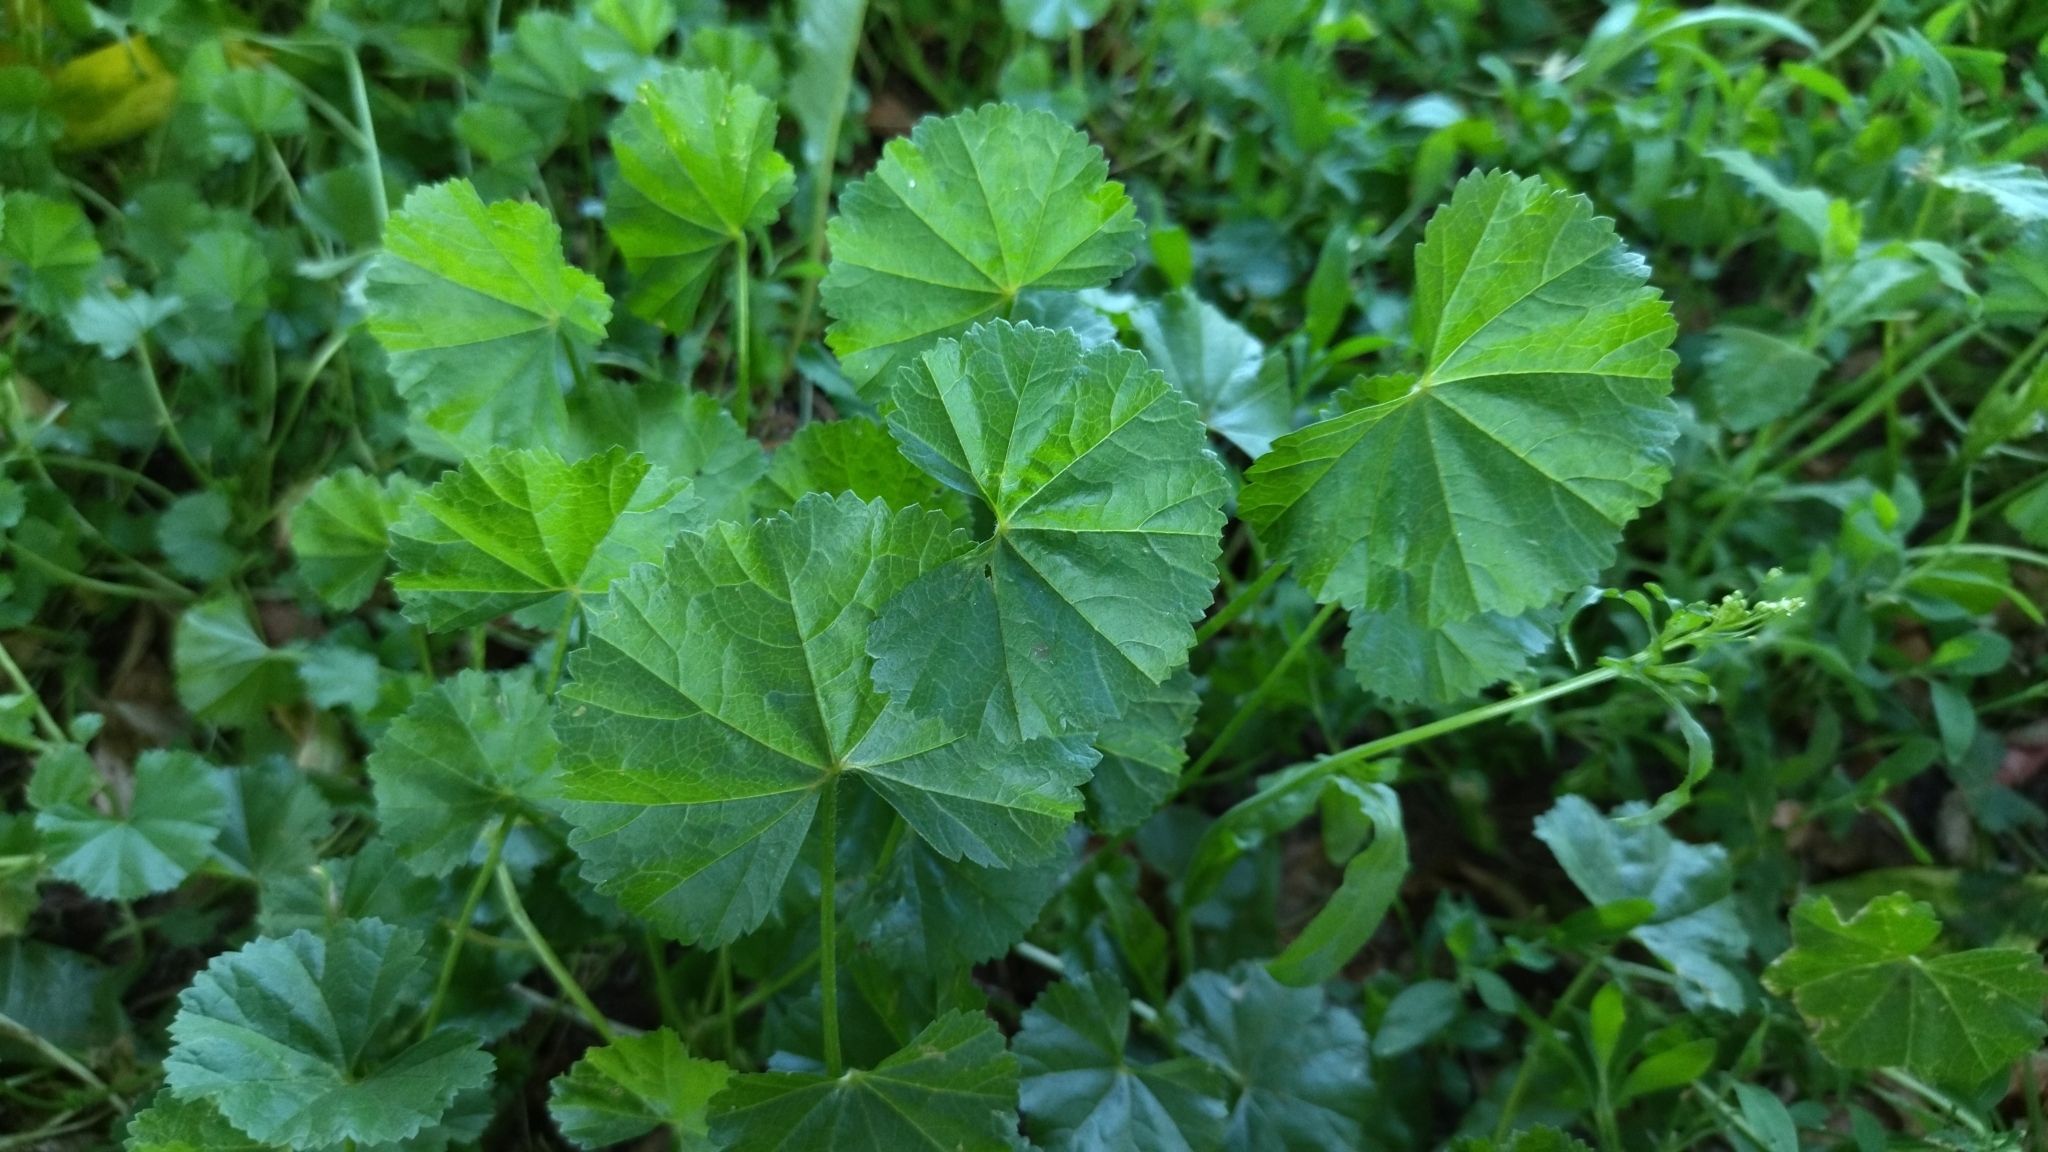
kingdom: Plantae
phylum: Tracheophyta
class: Magnoliopsida
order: Malvales
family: Malvaceae
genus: Malva
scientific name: Malva pusilla
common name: Small mallow
